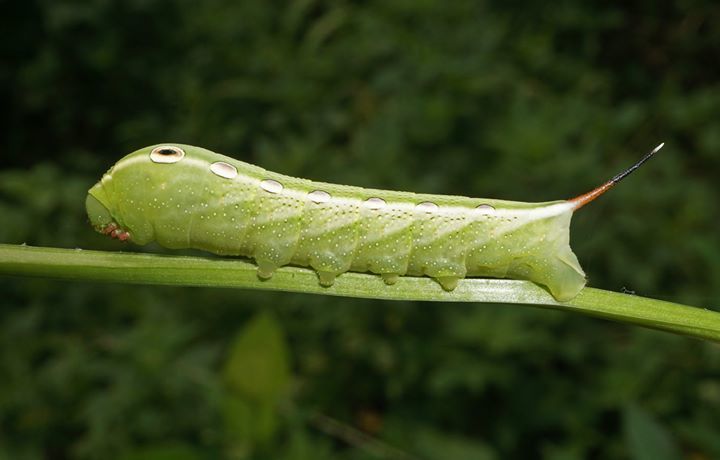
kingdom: Animalia
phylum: Arthropoda
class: Insecta
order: Lepidoptera
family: Sphingidae
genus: Xylophanes
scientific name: Xylophanes tersa
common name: Tersa sphinx
